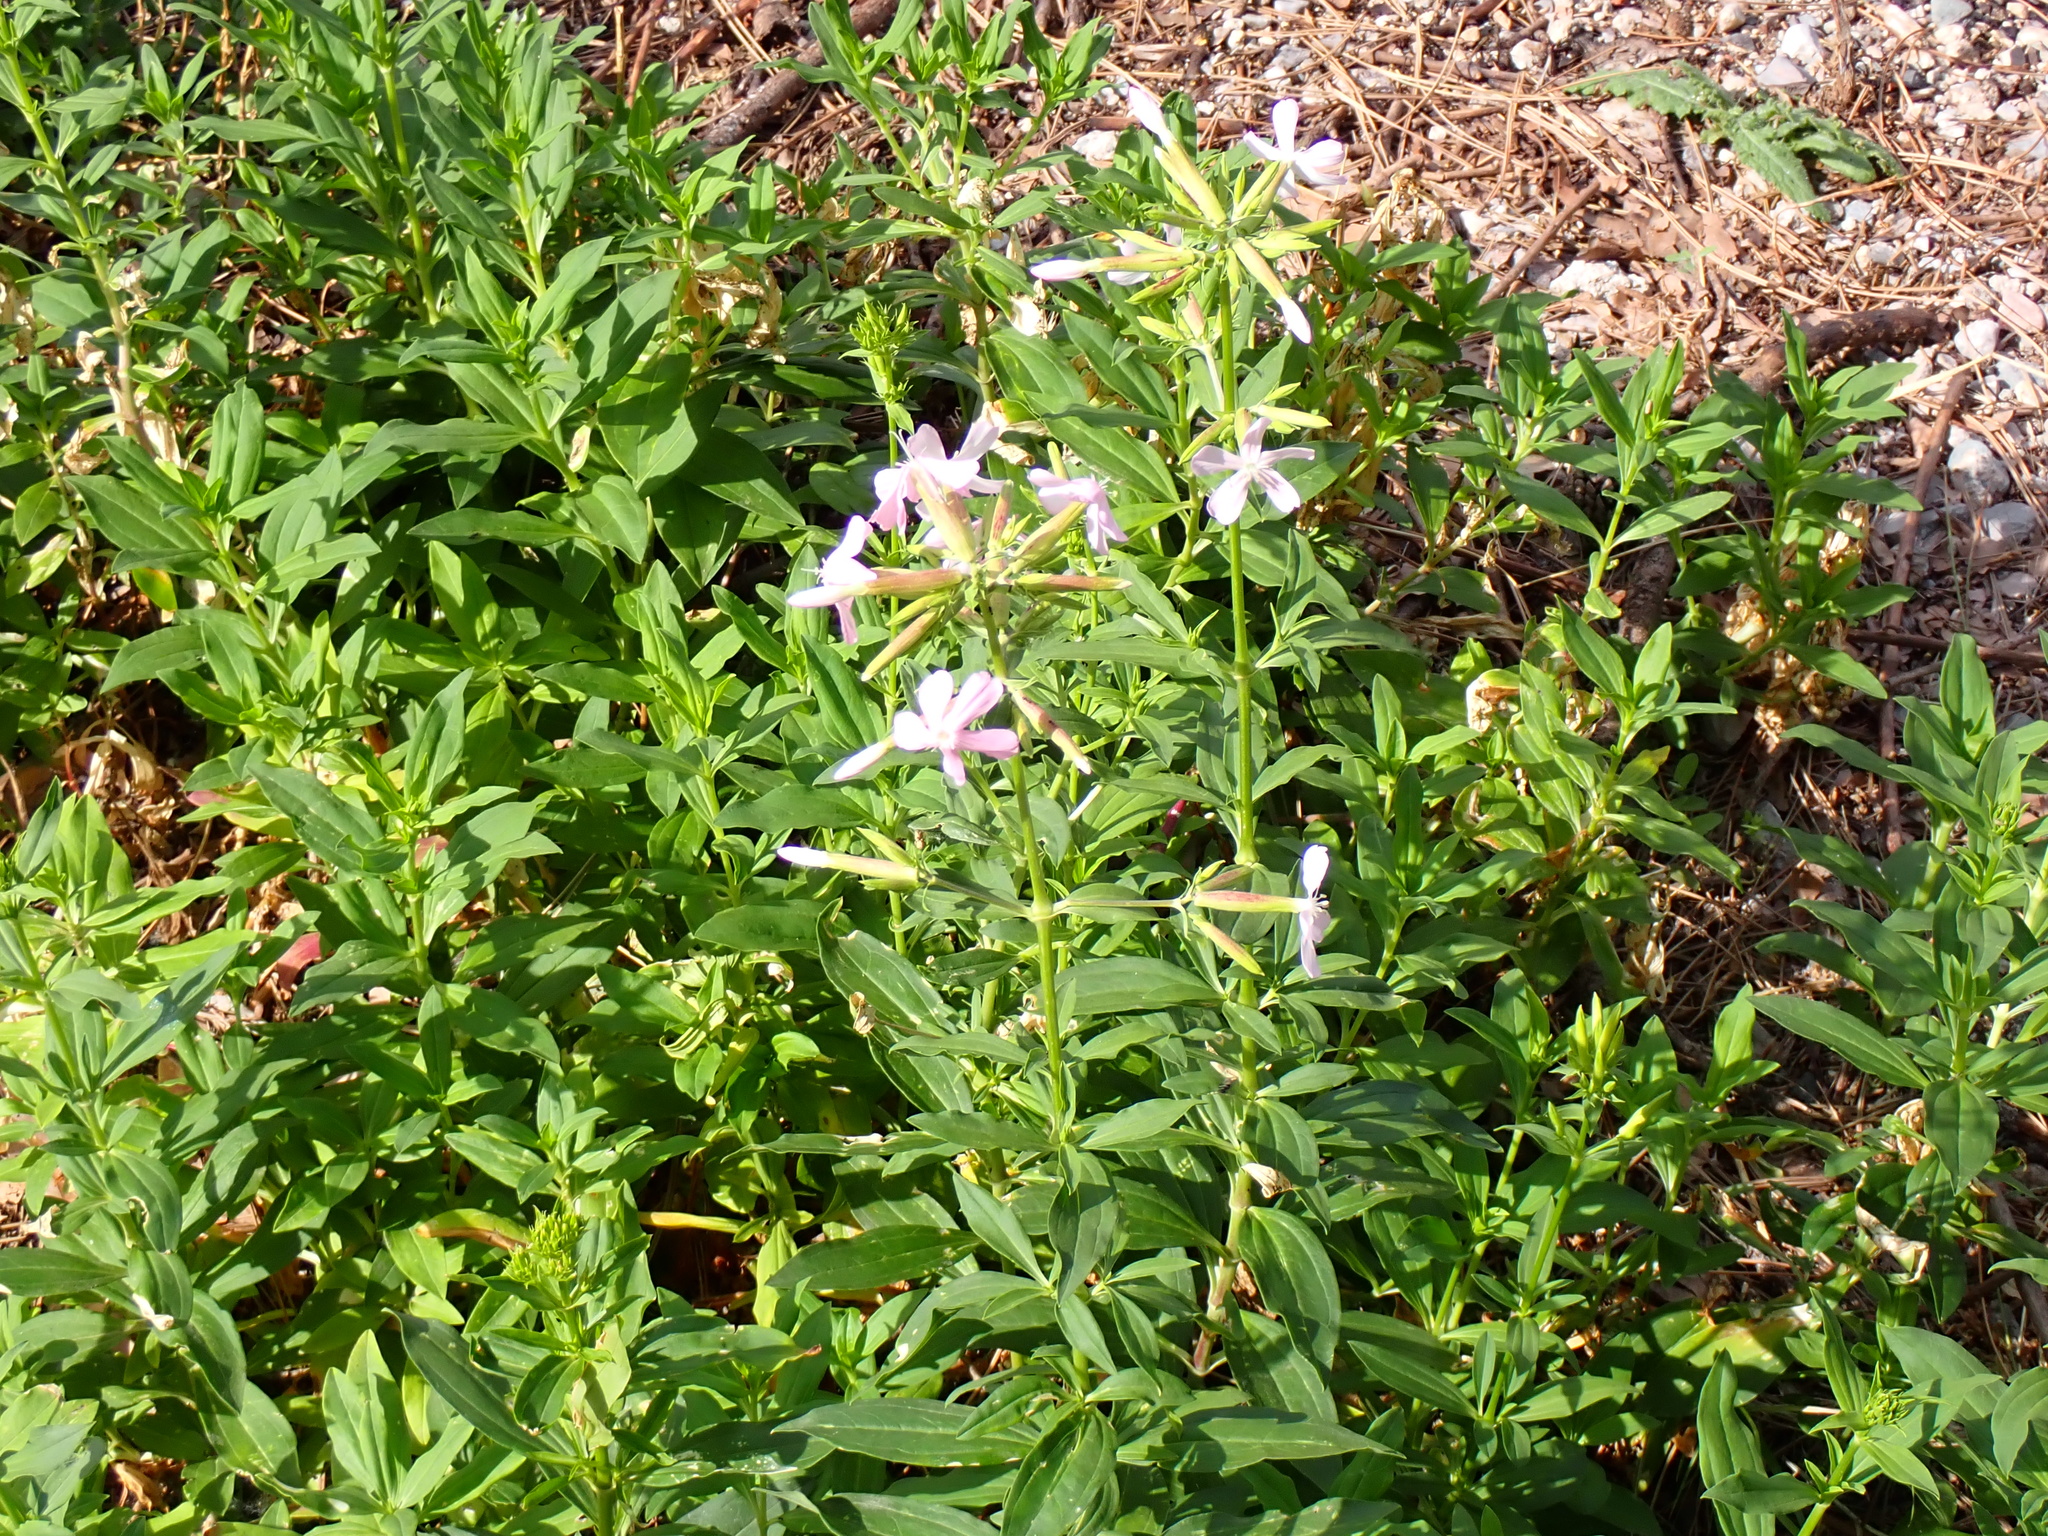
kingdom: Plantae
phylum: Tracheophyta
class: Magnoliopsida
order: Caryophyllales
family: Caryophyllaceae
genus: Saponaria
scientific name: Saponaria officinalis
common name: Soapwort
